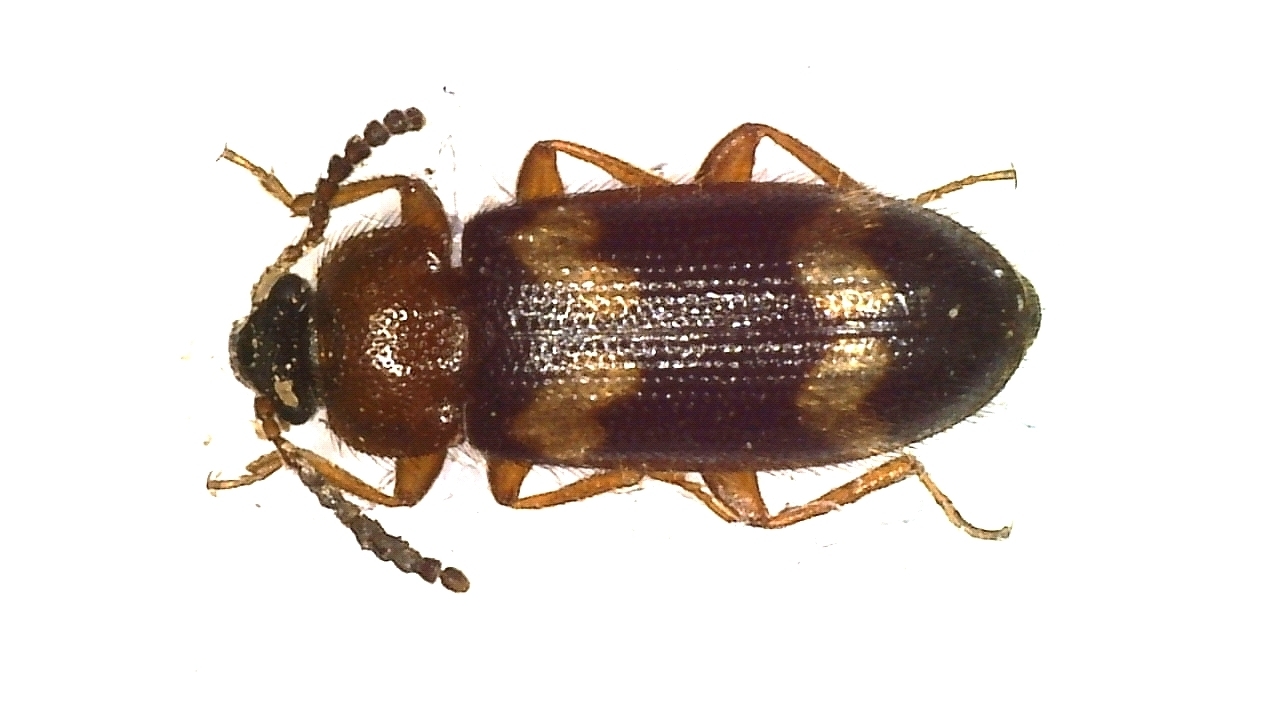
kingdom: Animalia
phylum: Arthropoda
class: Insecta
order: Coleoptera
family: Mycetophagidae
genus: Mycetophagus
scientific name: Mycetophagus fulvicollis
